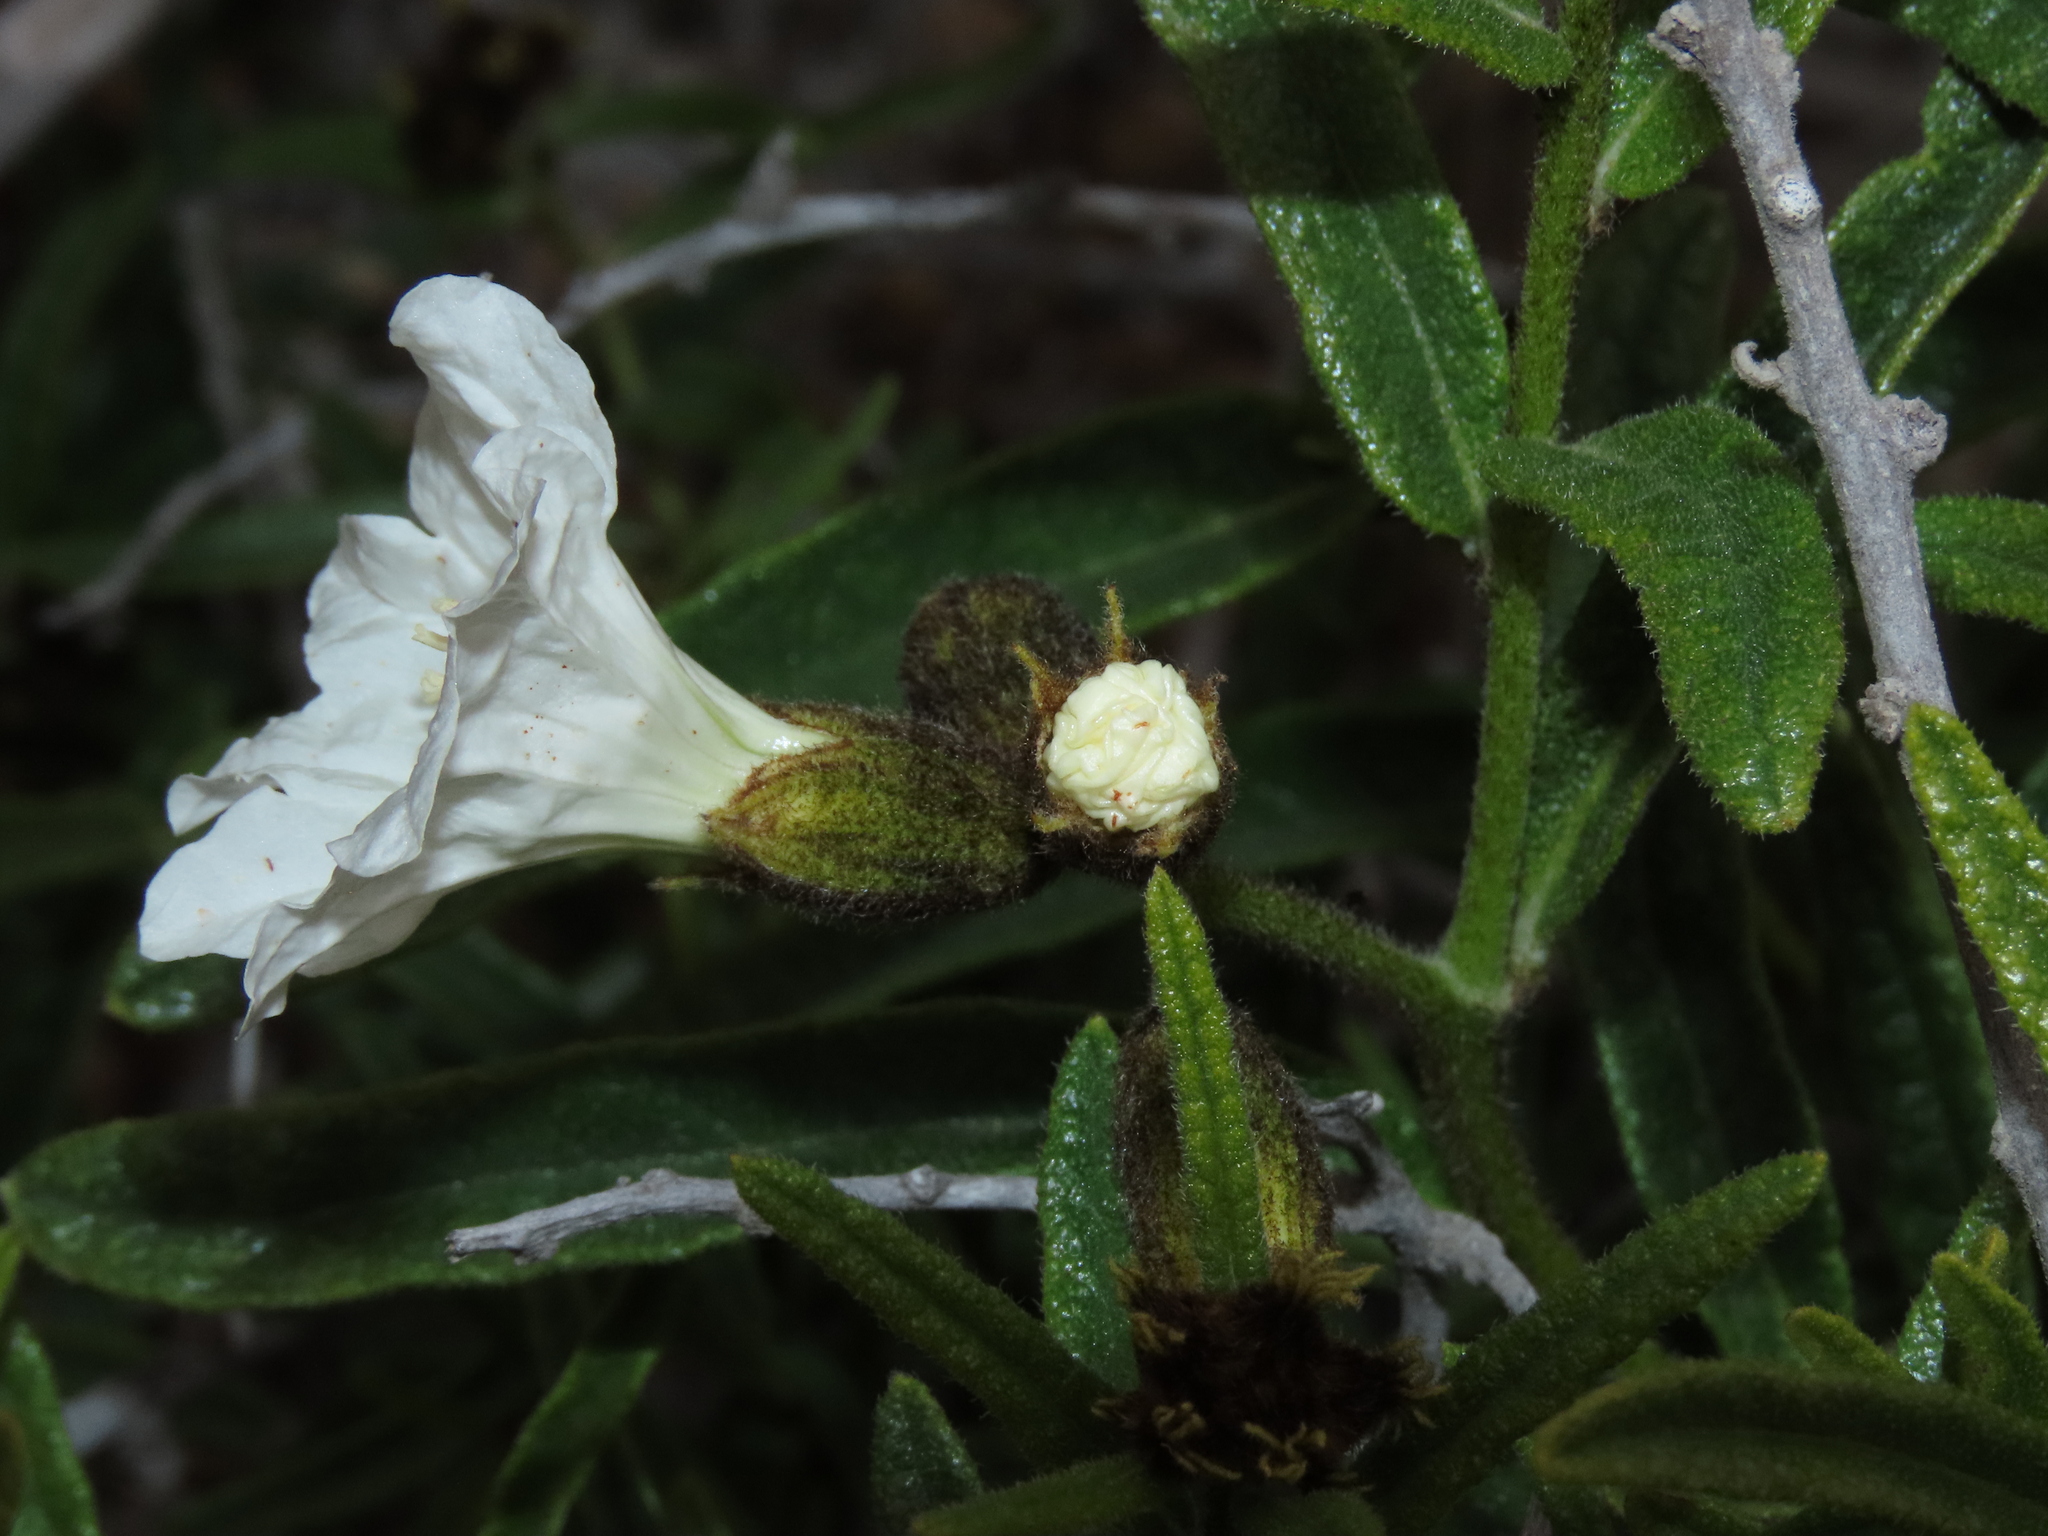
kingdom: Plantae
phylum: Tracheophyta
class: Magnoliopsida
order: Boraginales
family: Cordiaceae
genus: Cordia
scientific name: Cordia decandra
